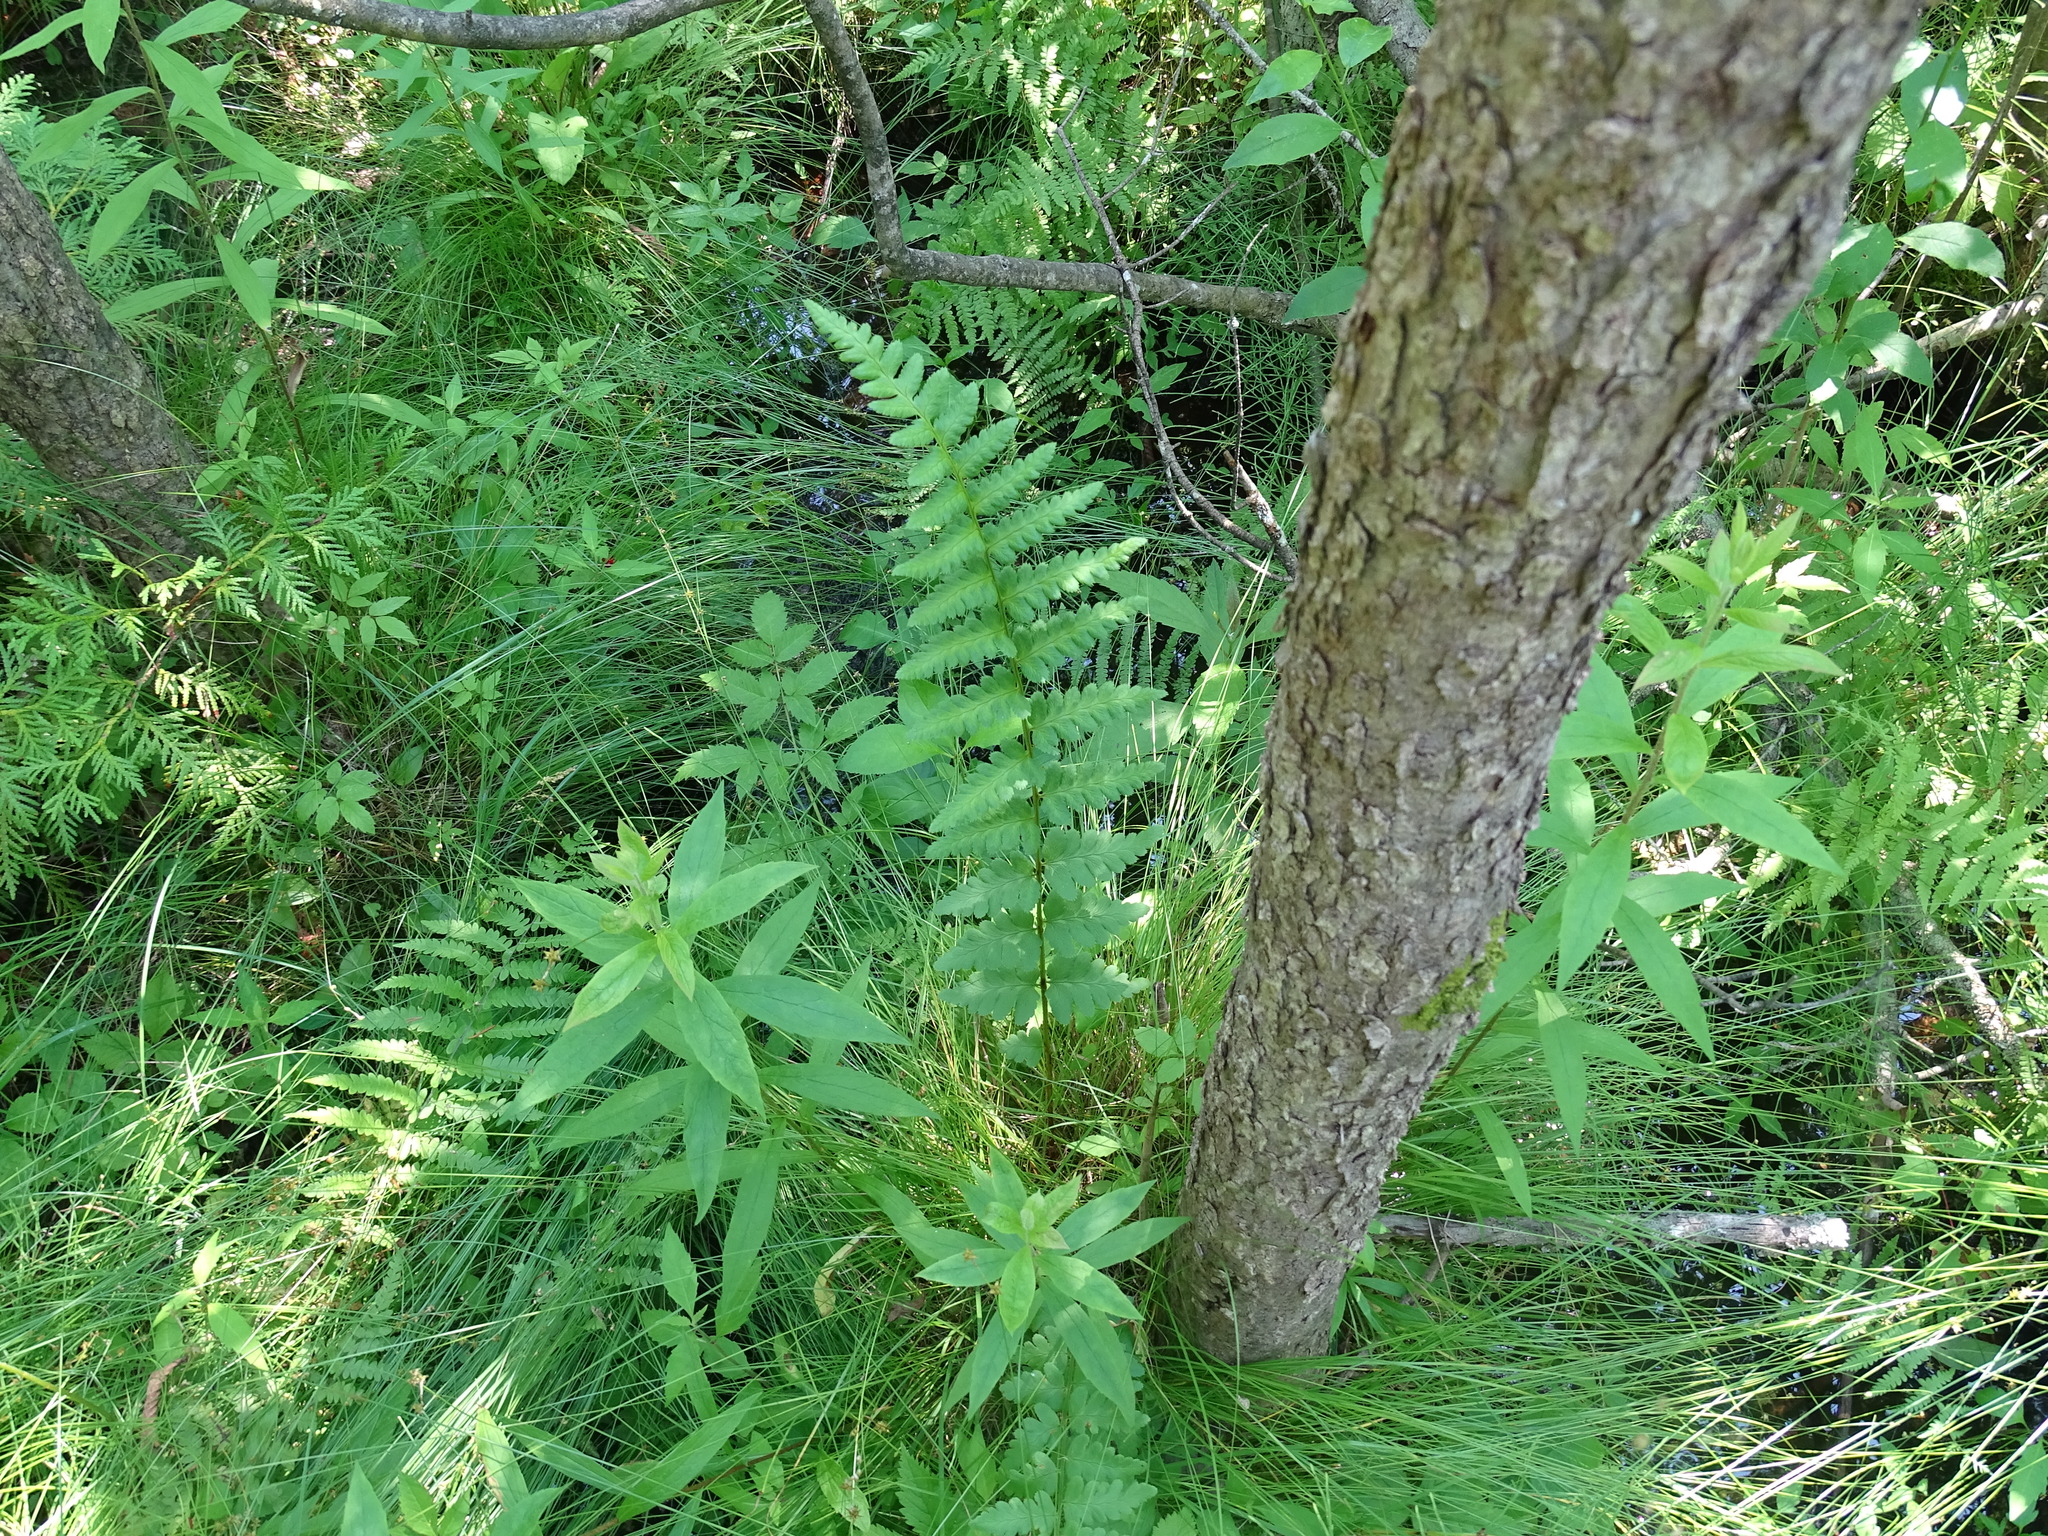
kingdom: Plantae
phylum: Tracheophyta
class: Polypodiopsida
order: Polypodiales
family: Dryopteridaceae
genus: Dryopteris
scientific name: Dryopteris cristata
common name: Crested wood fern
